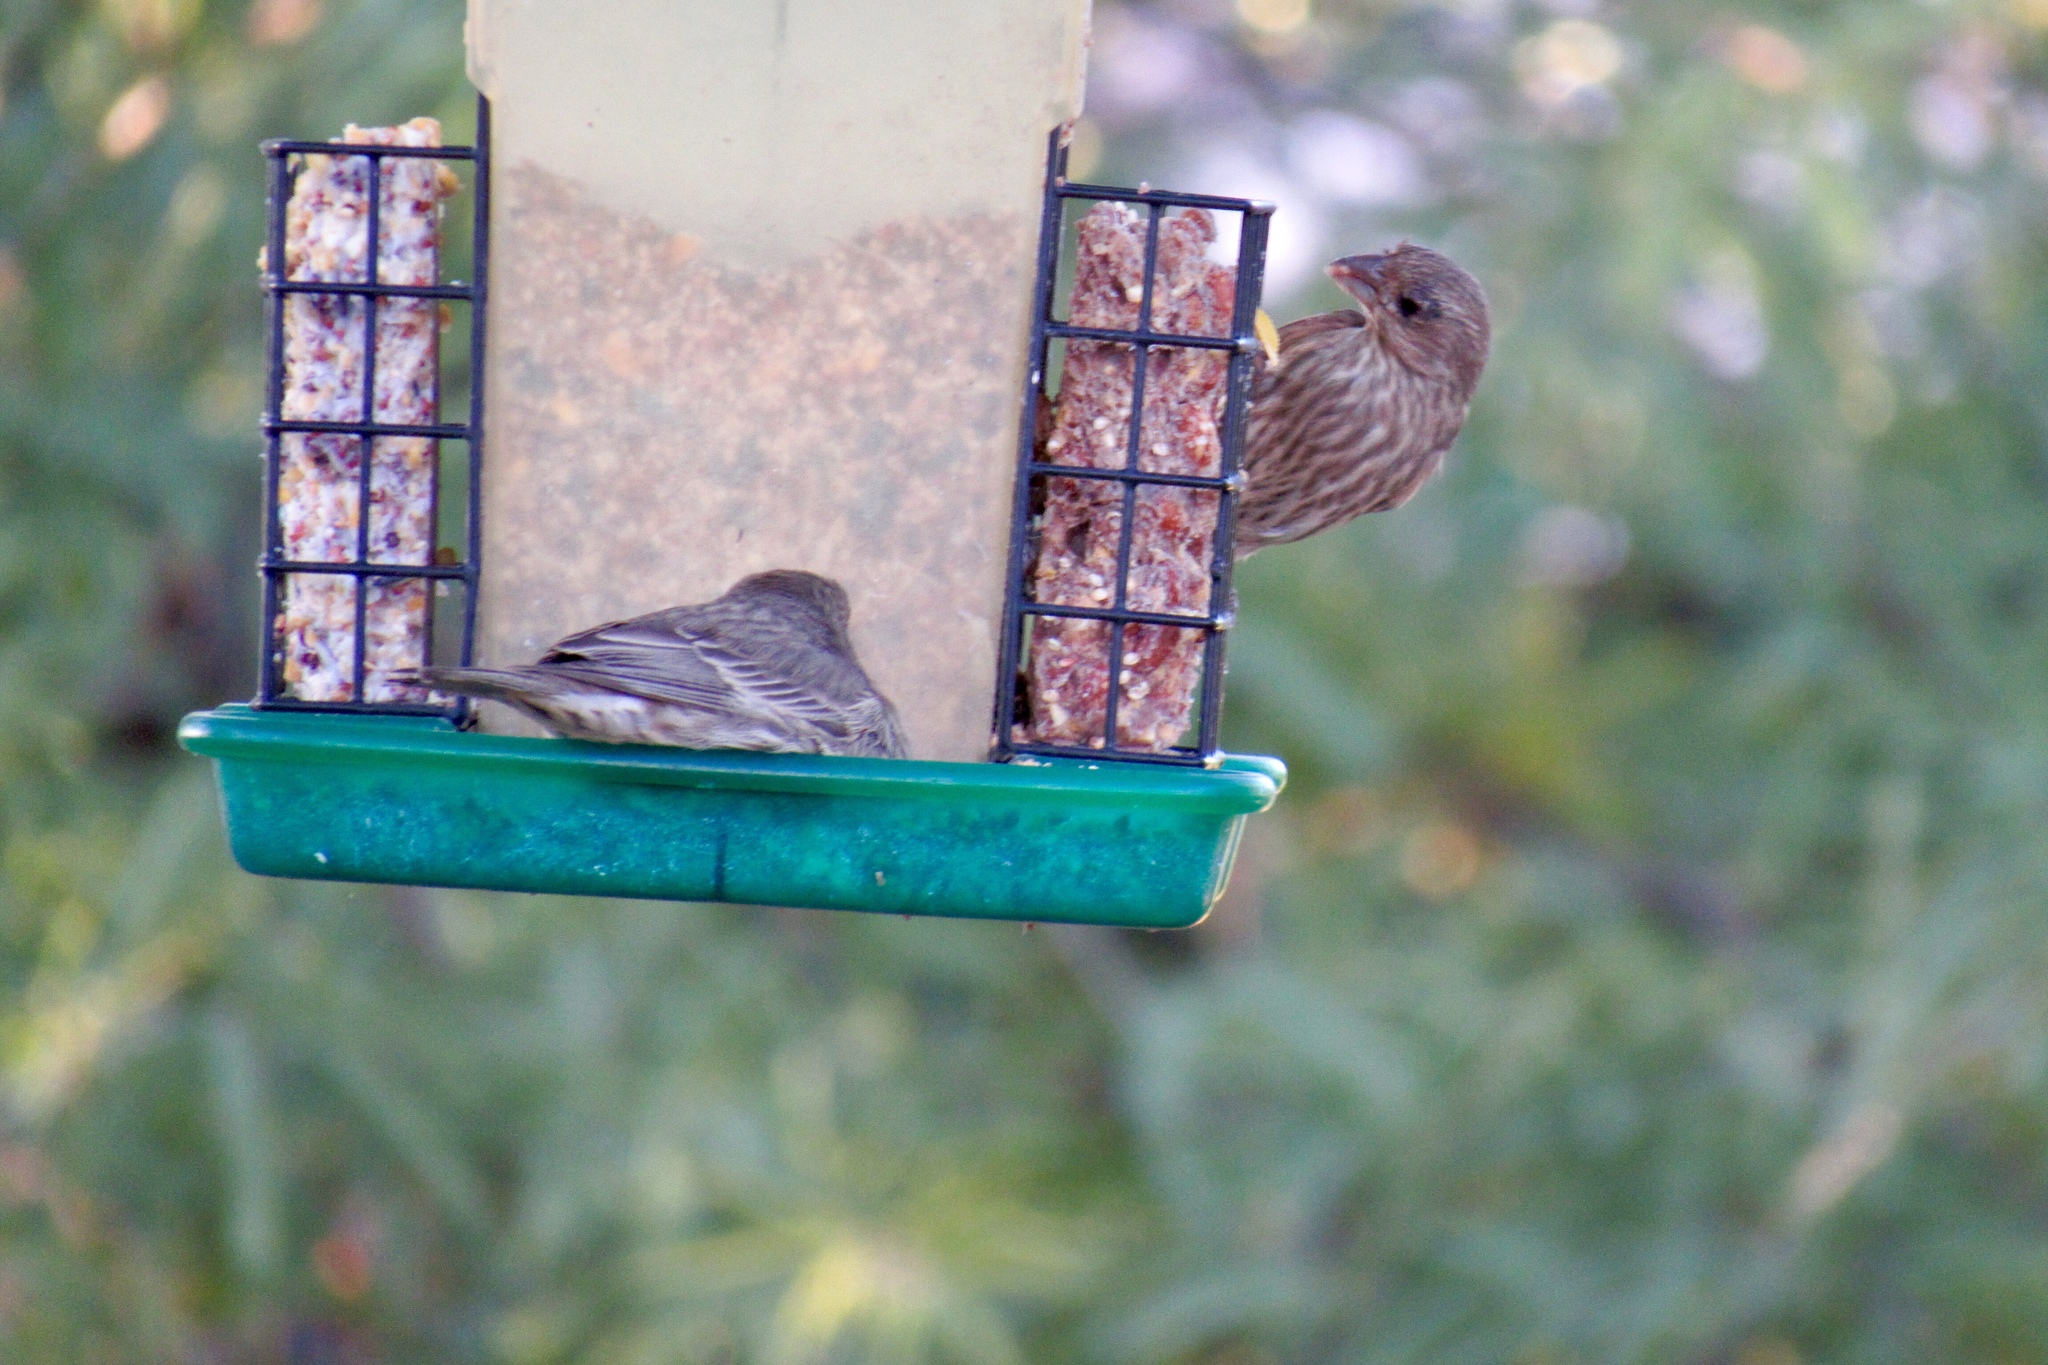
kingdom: Animalia
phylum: Chordata
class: Aves
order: Passeriformes
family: Fringillidae
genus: Haemorhous
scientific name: Haemorhous mexicanus
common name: House finch
